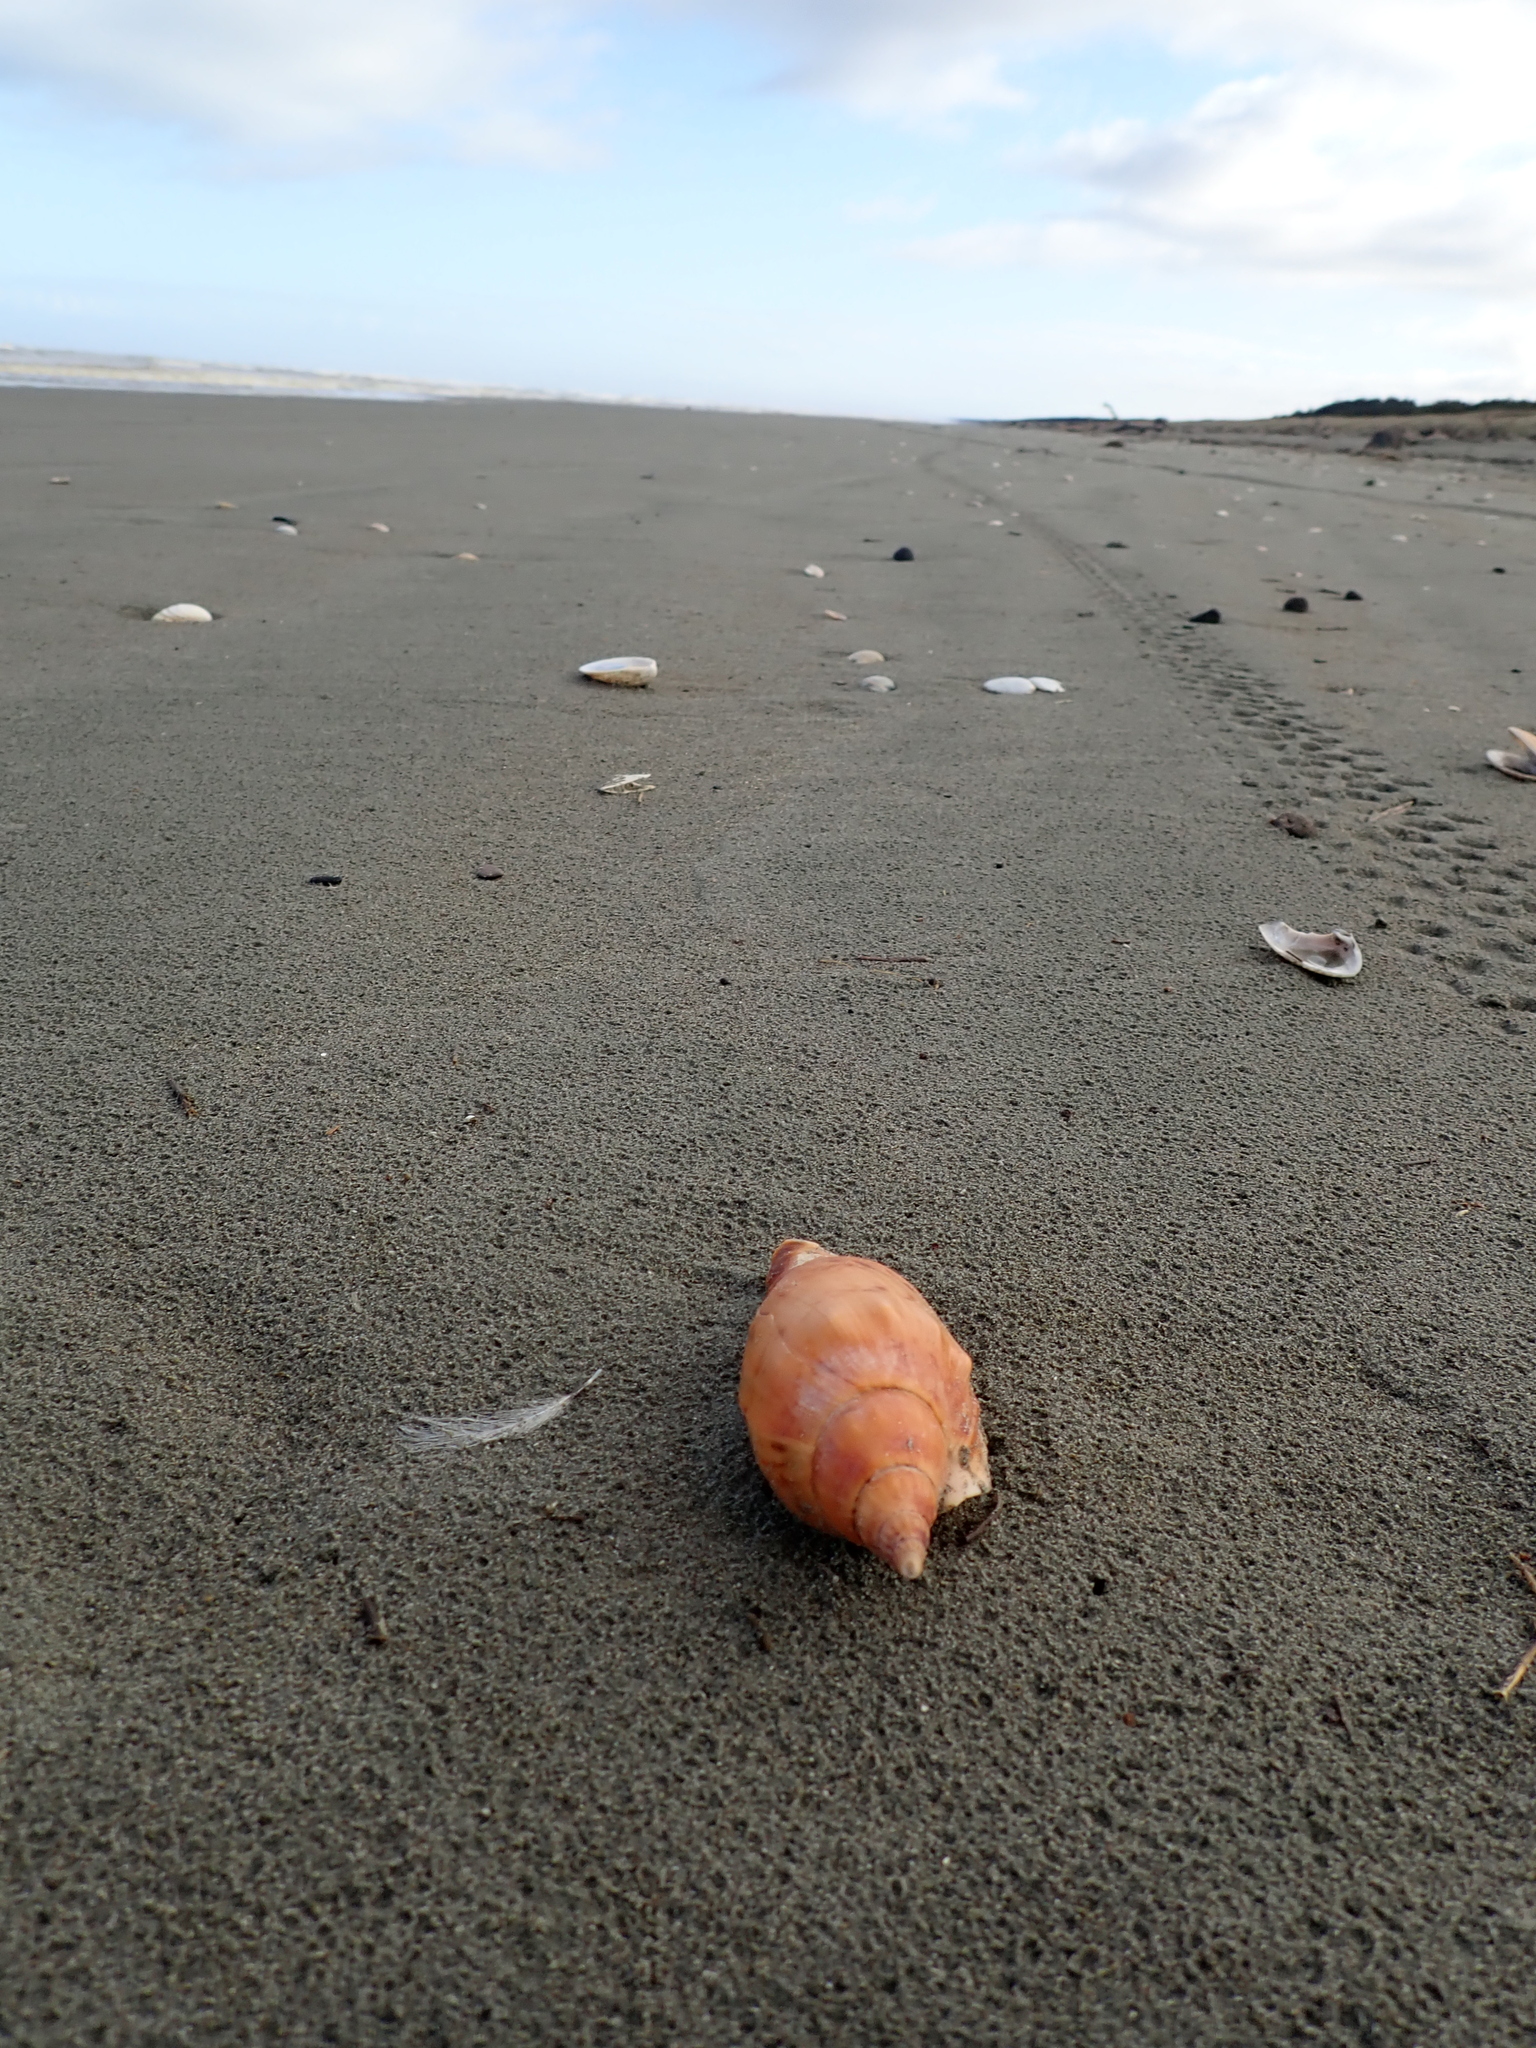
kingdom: Animalia
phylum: Mollusca
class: Gastropoda
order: Neogastropoda
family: Volutidae
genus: Alcithoe
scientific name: Alcithoe arabica
